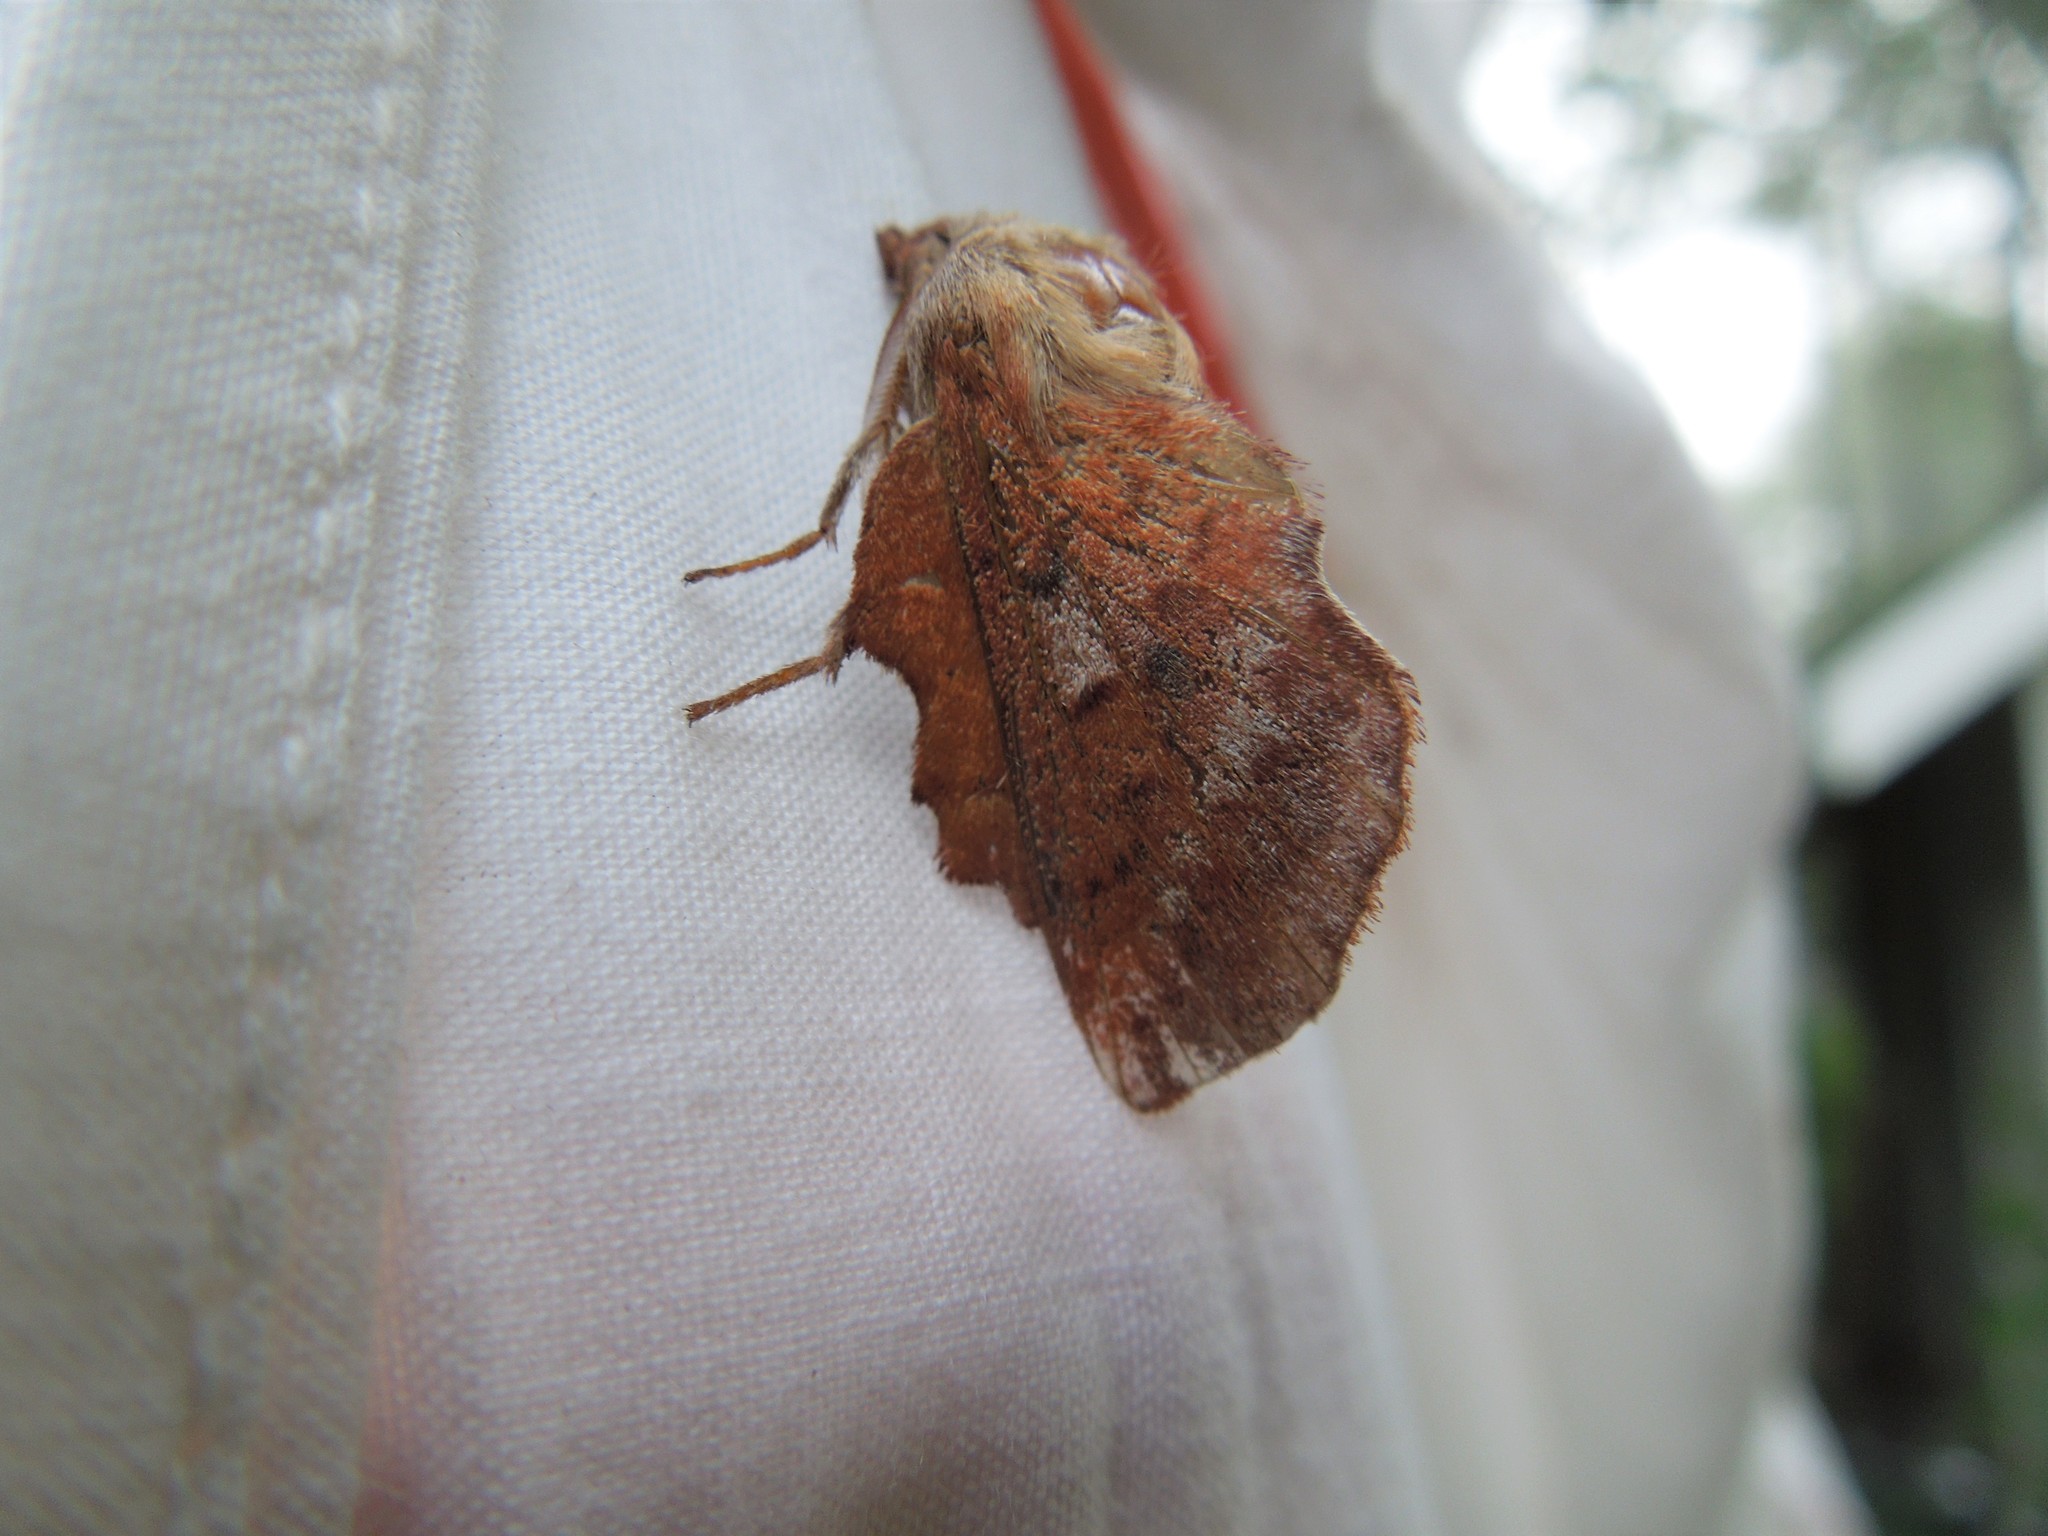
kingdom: Animalia
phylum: Arthropoda
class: Insecta
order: Lepidoptera
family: Lasiocampidae
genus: Phyllodesma
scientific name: Phyllodesma americana
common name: American lappet moth
